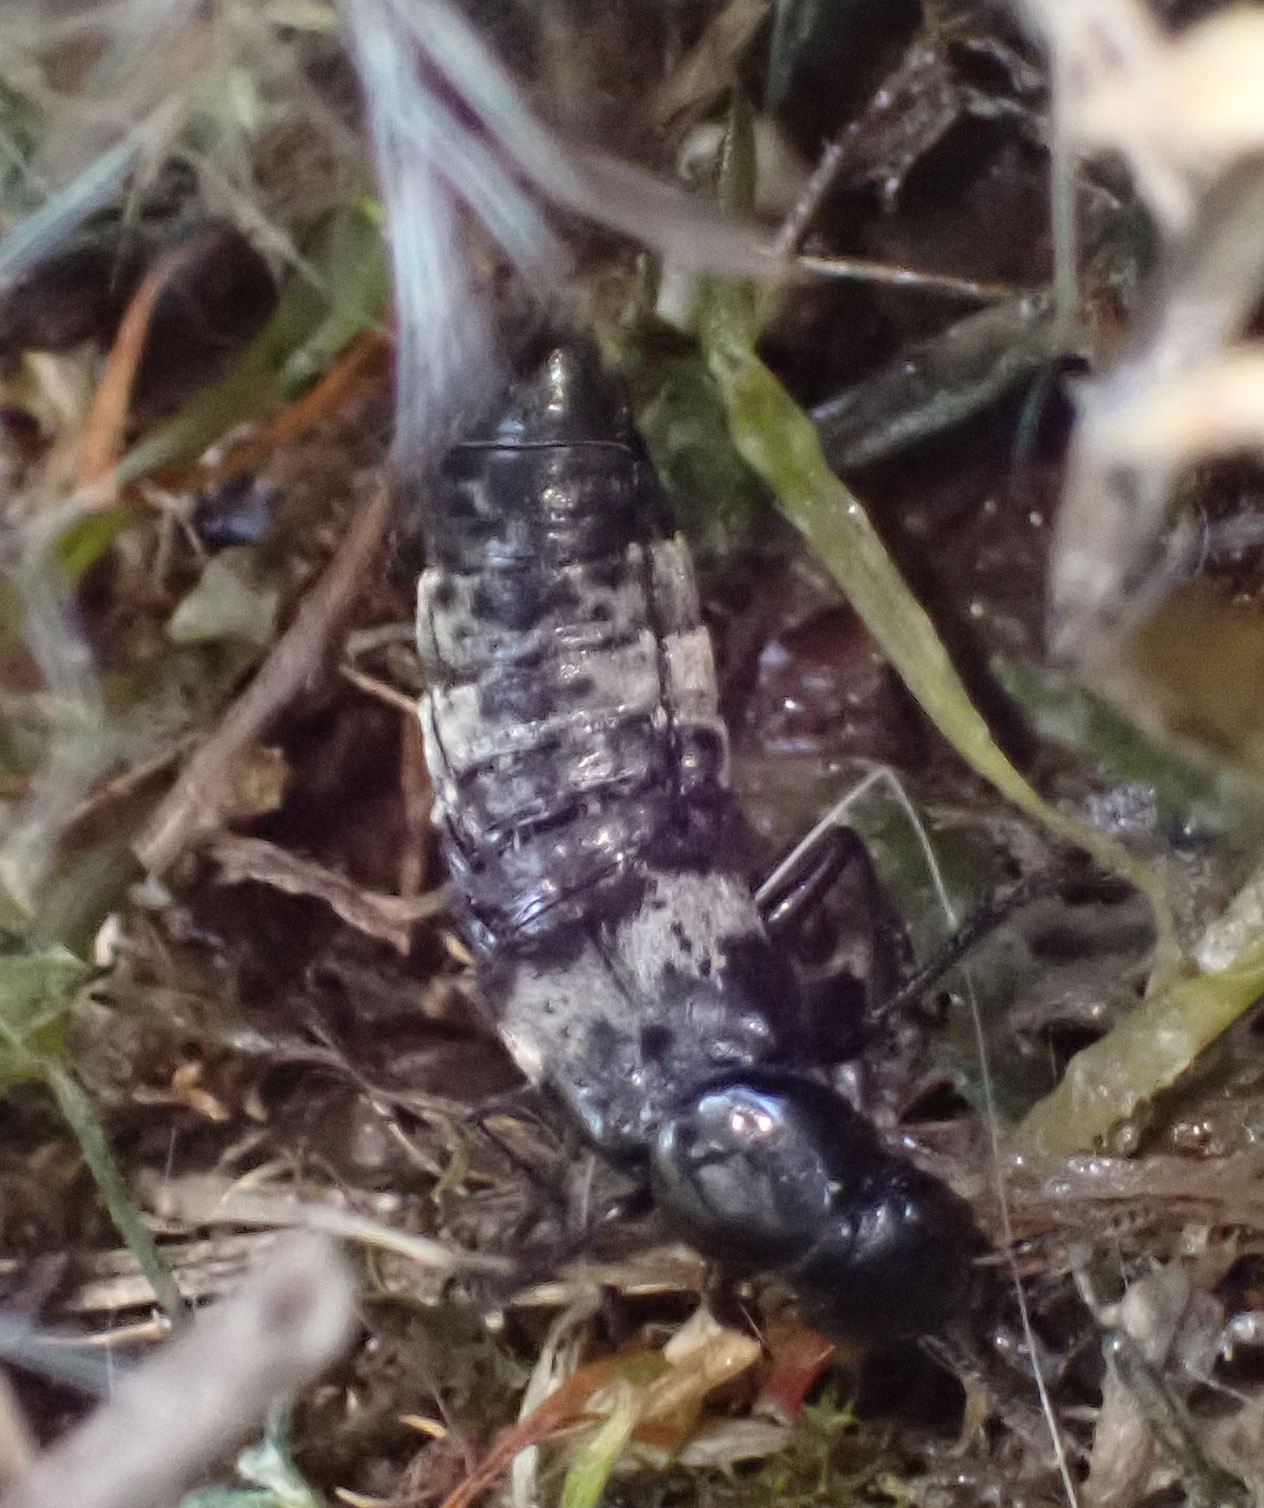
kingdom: Animalia
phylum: Arthropoda
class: Insecta
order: Coleoptera
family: Staphylinidae
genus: Creophilus
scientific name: Creophilus maxillosus
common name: Hairy rove beetle
